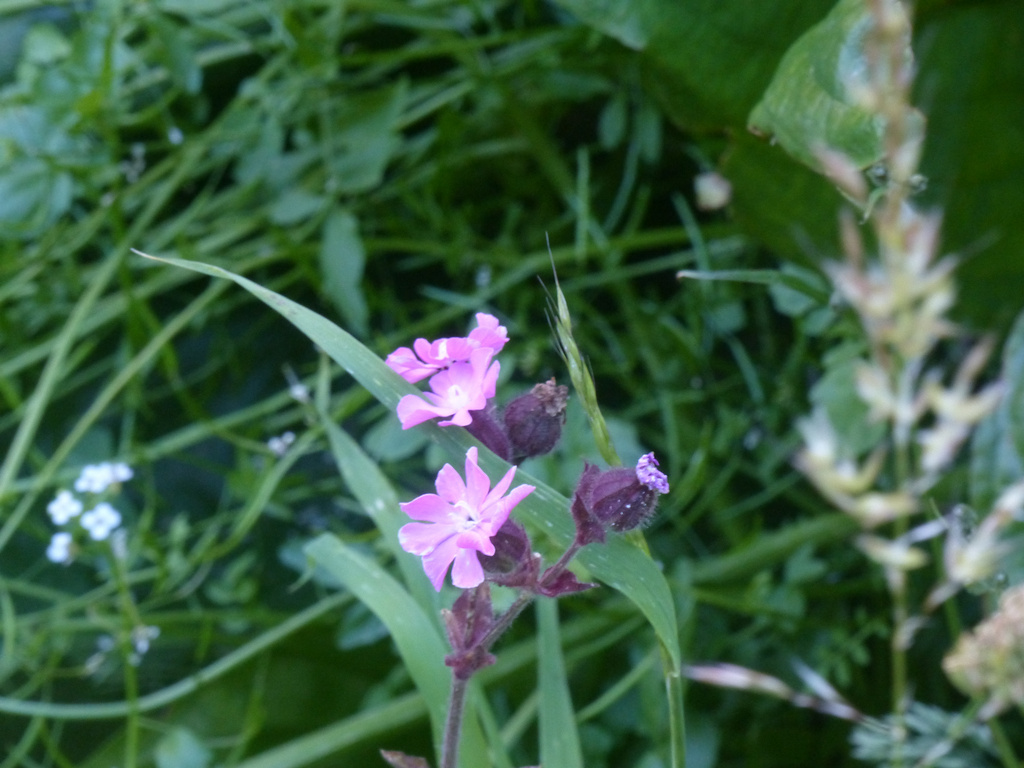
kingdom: Plantae
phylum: Tracheophyta
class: Magnoliopsida
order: Caryophyllales
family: Caryophyllaceae
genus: Silene
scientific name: Silene dioica
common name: Red campion
